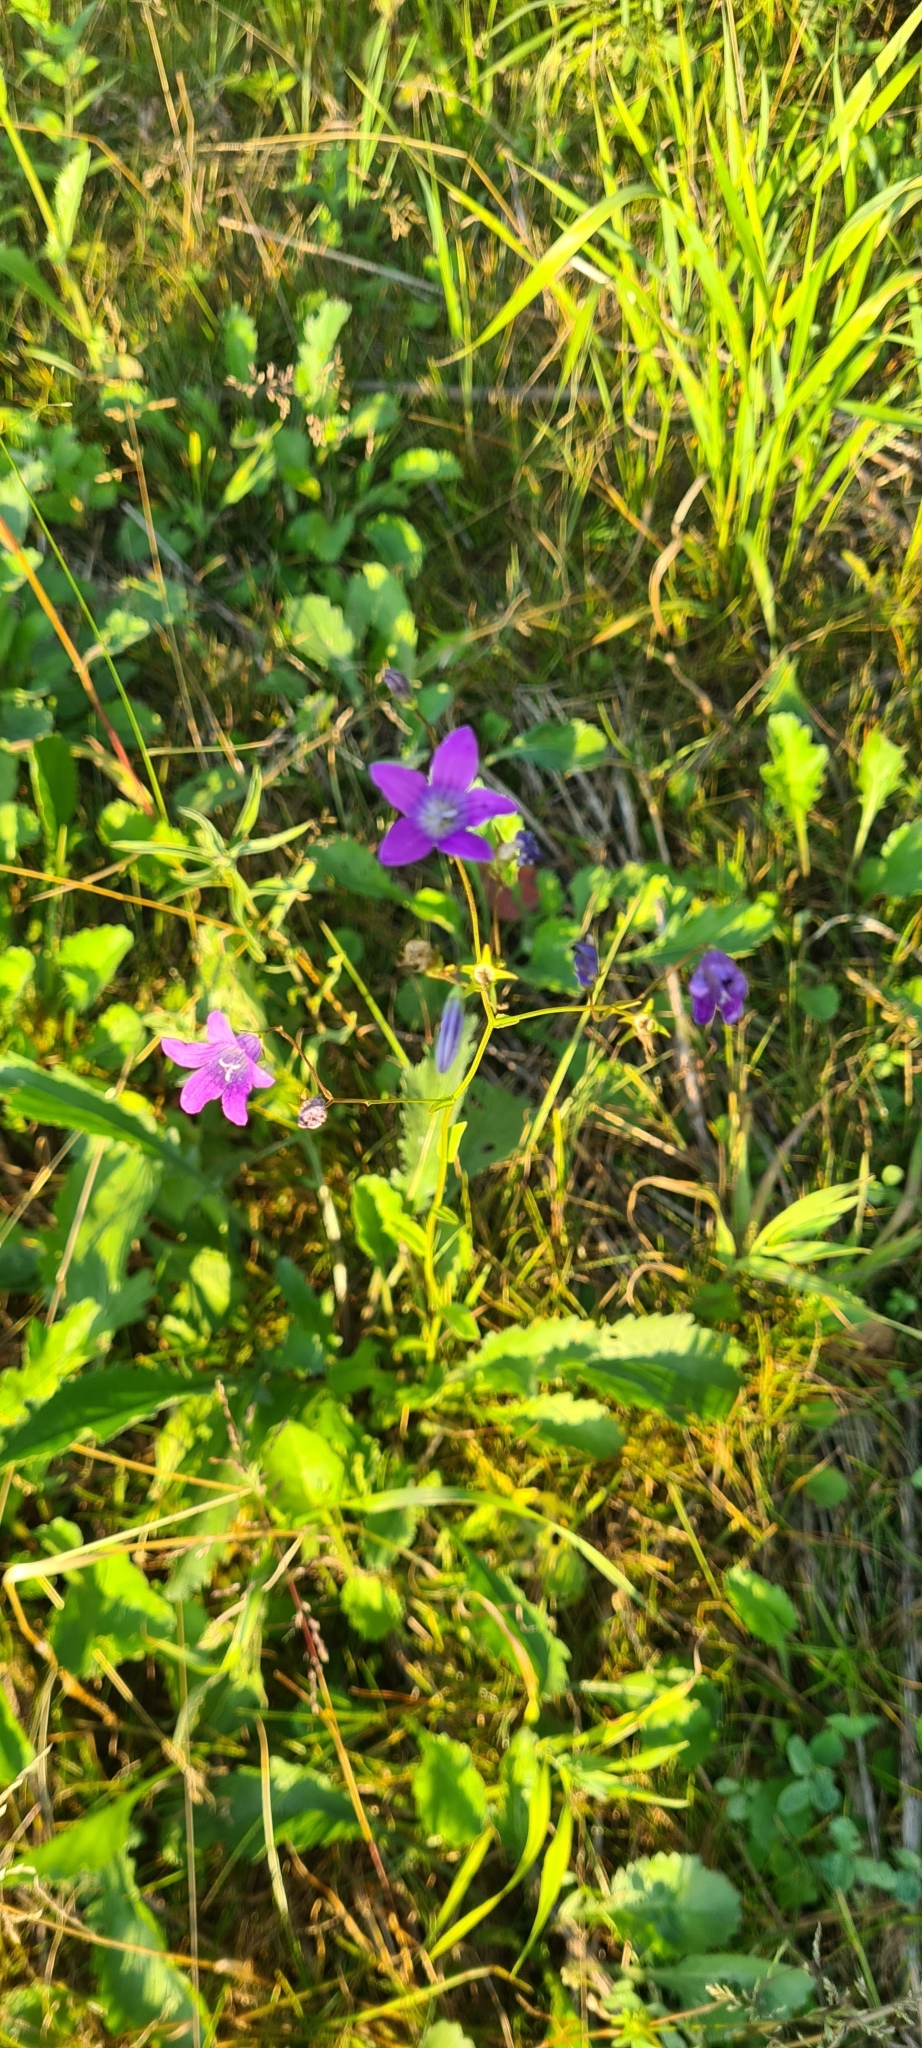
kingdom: Plantae
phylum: Tracheophyta
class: Magnoliopsida
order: Asterales
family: Campanulaceae
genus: Campanula
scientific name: Campanula patula
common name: Spreading bellflower
